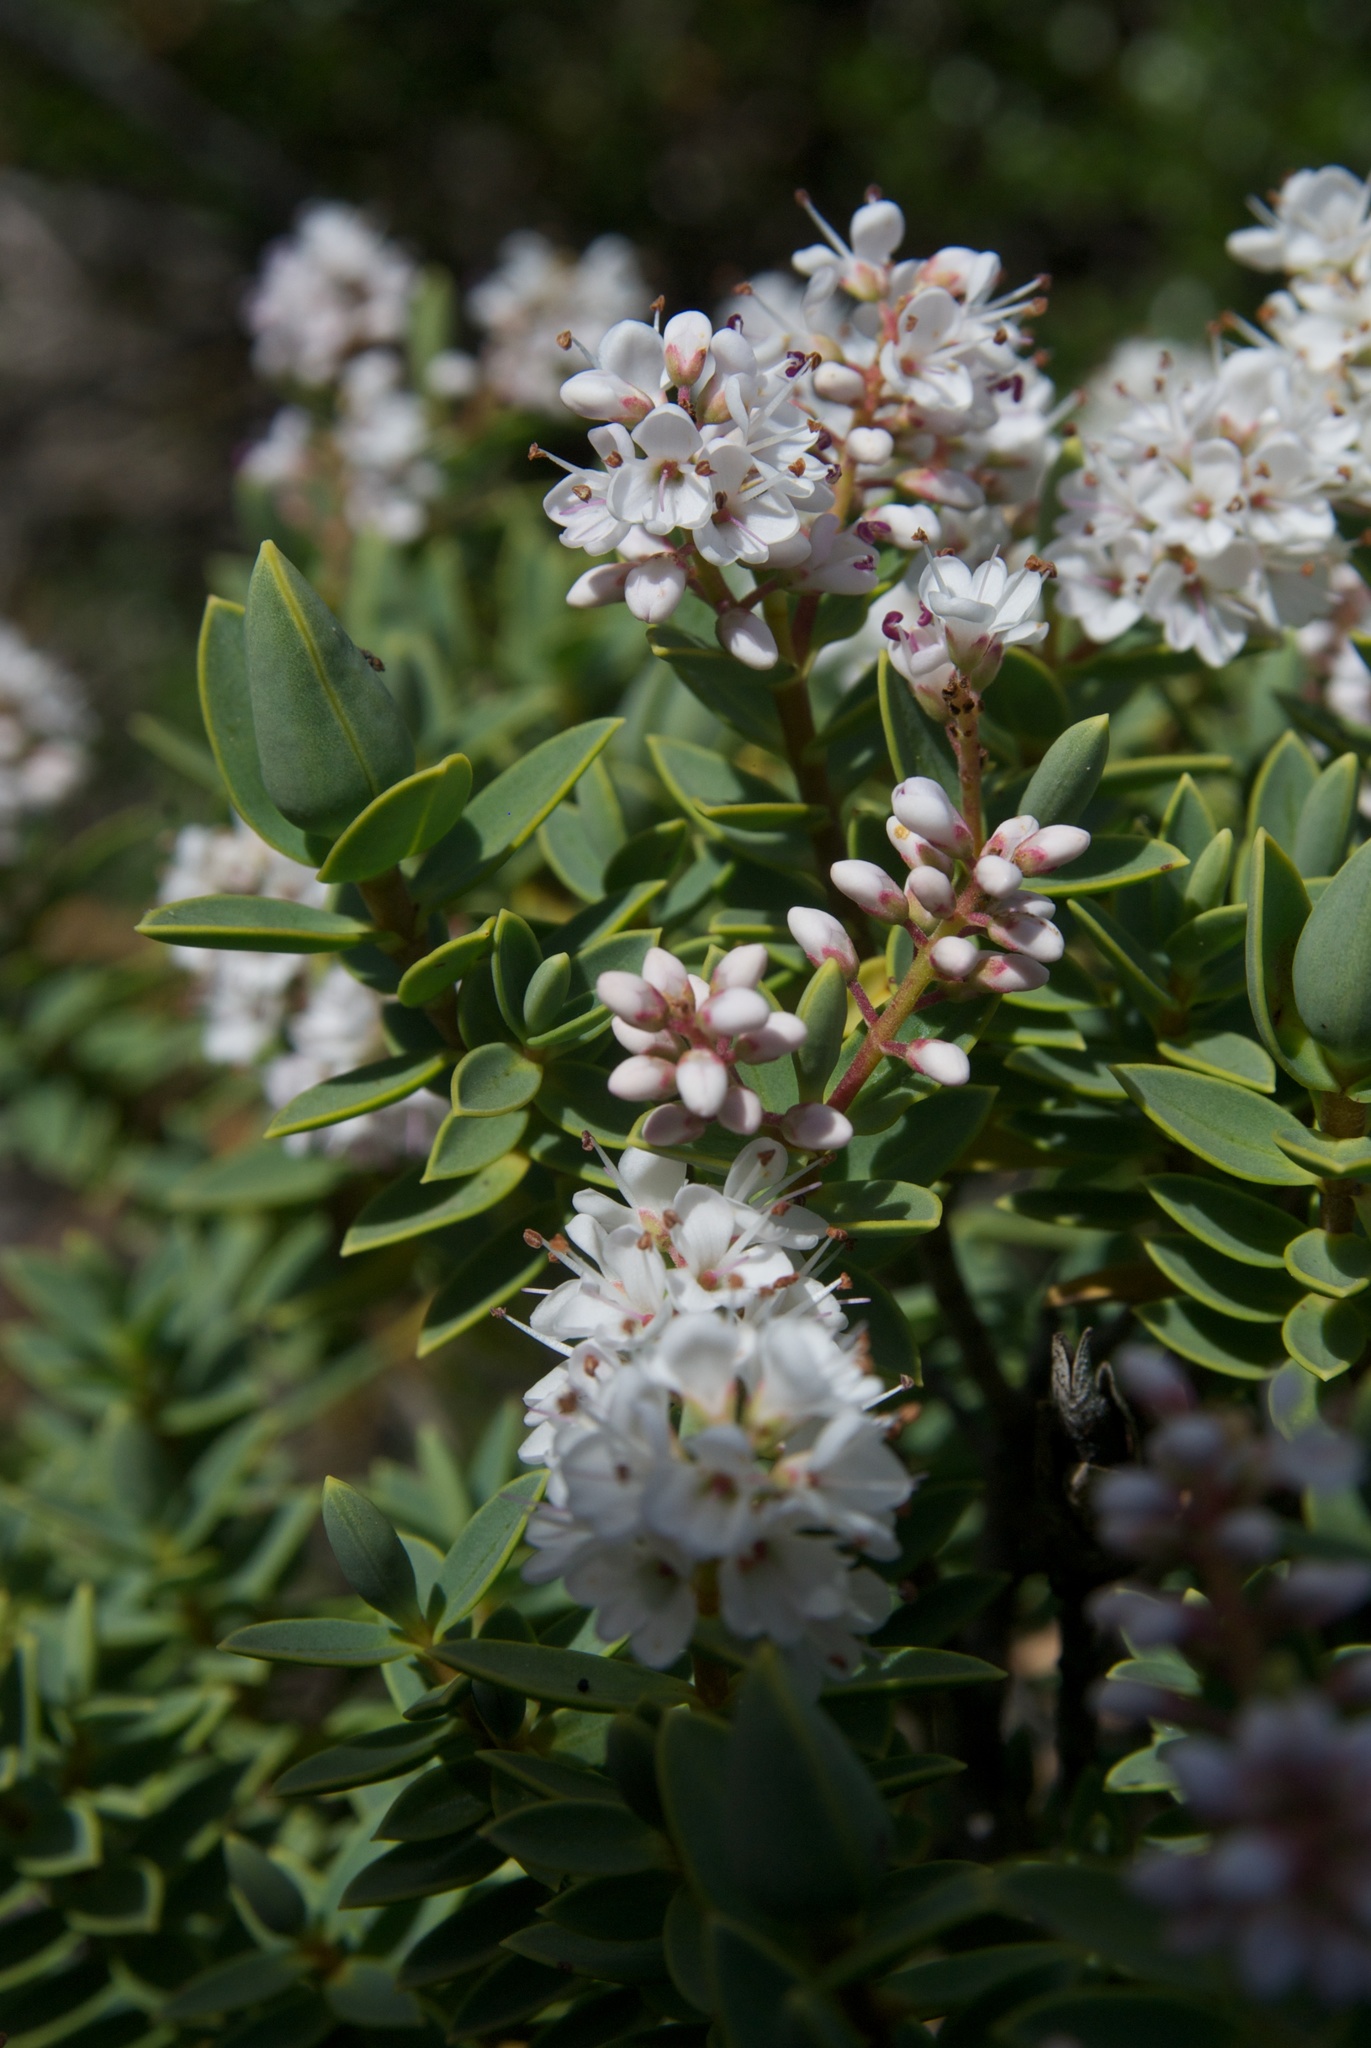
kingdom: Plantae
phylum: Tracheophyta
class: Magnoliopsida
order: Lamiales
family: Plantaginaceae
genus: Veronica
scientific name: Veronica glaucophylla
